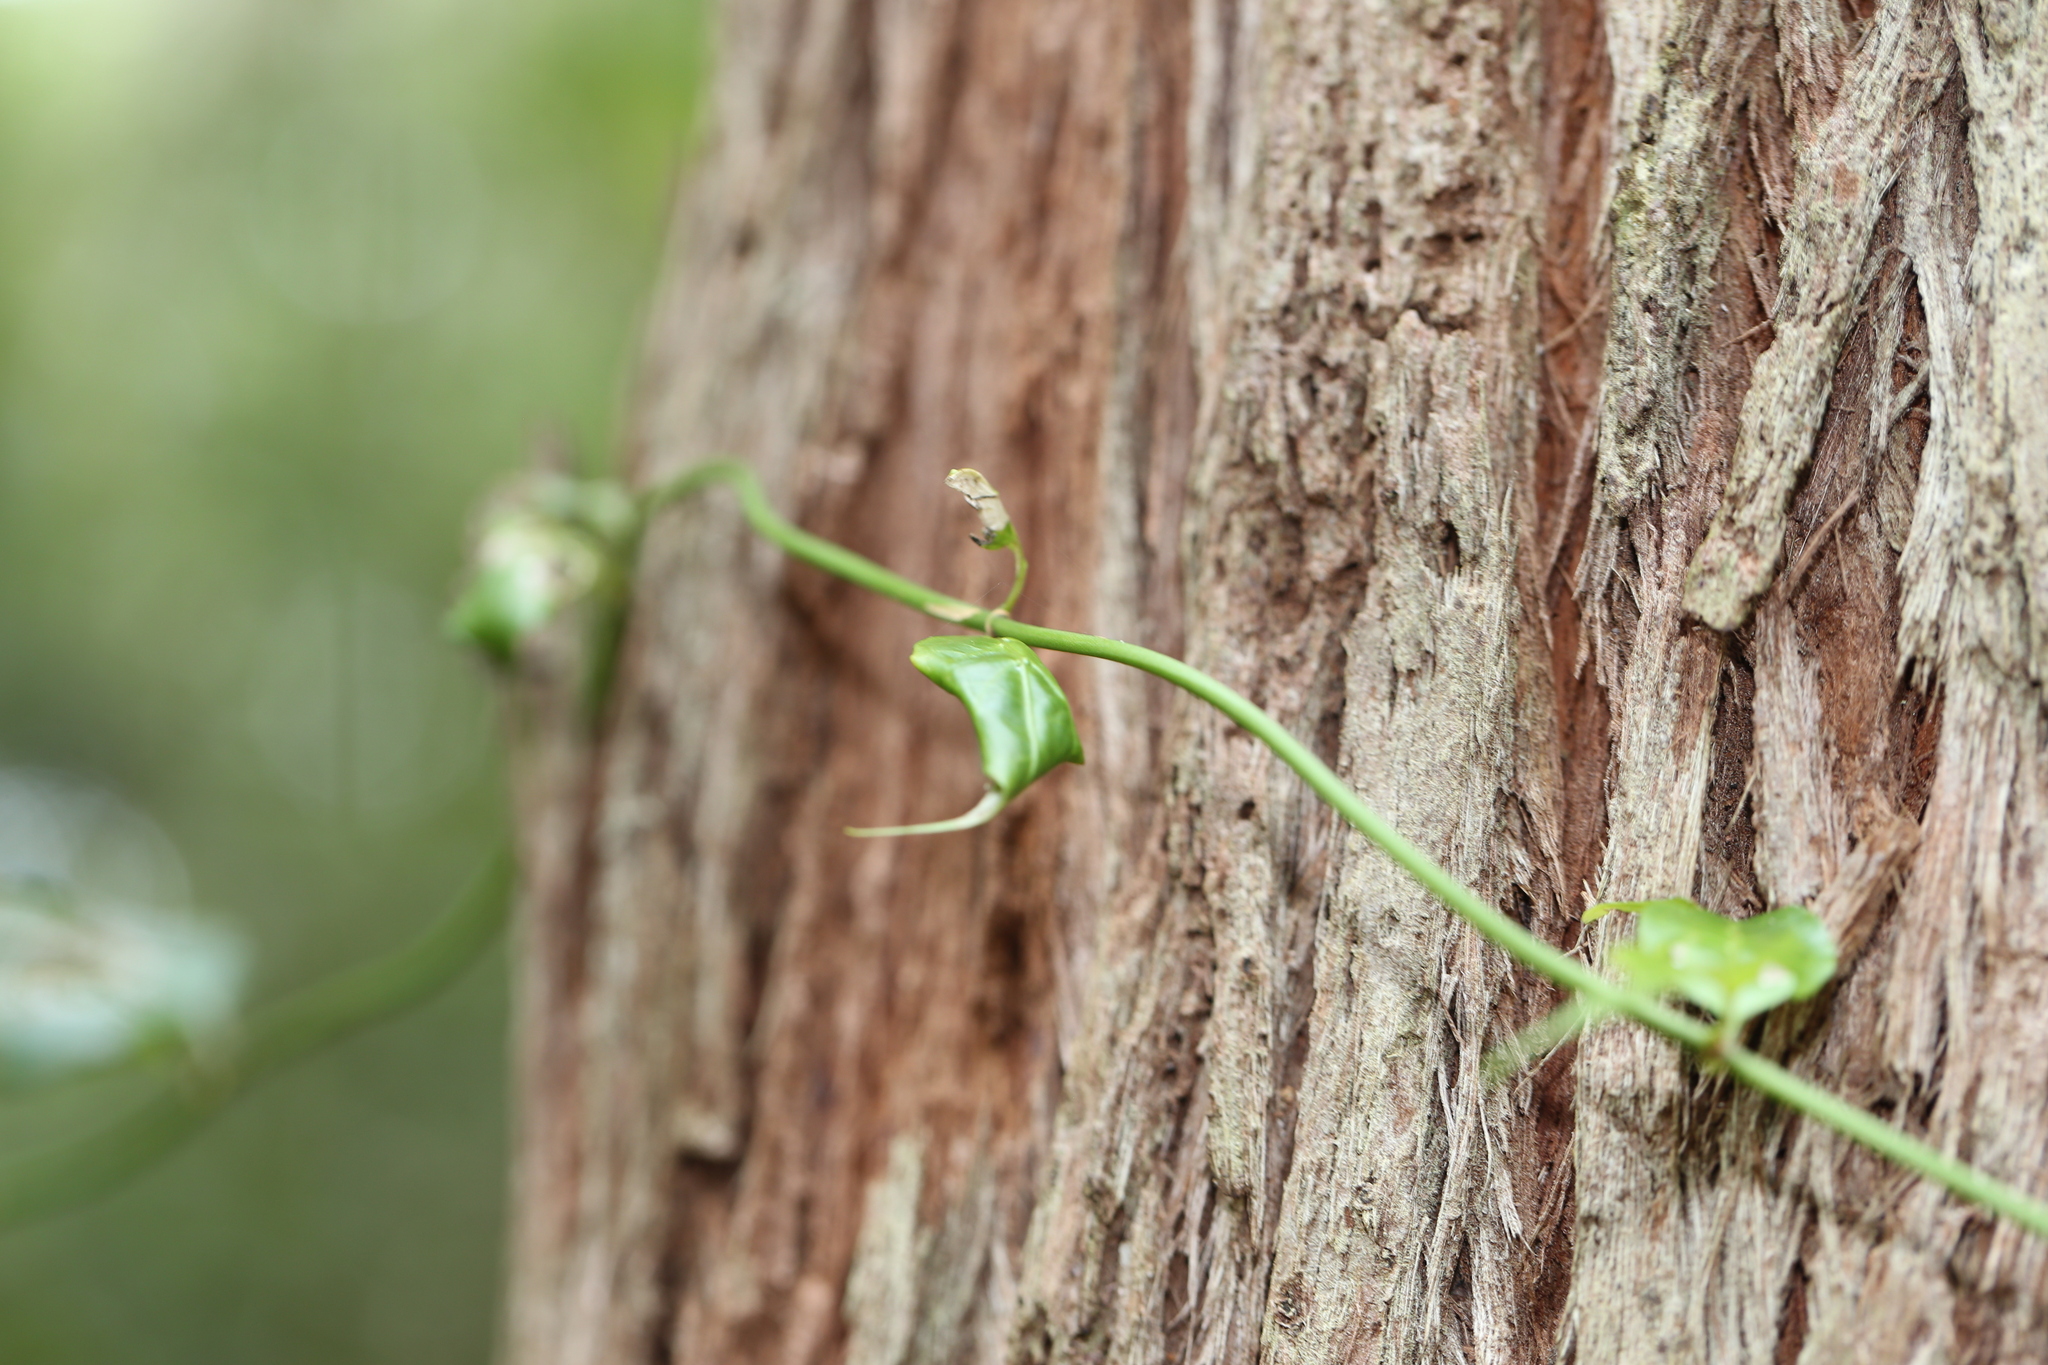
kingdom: Plantae
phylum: Tracheophyta
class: Magnoliopsida
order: Gentianales
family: Rubiaceae
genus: Gynochthodes
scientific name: Gynochthodes jasminoides
